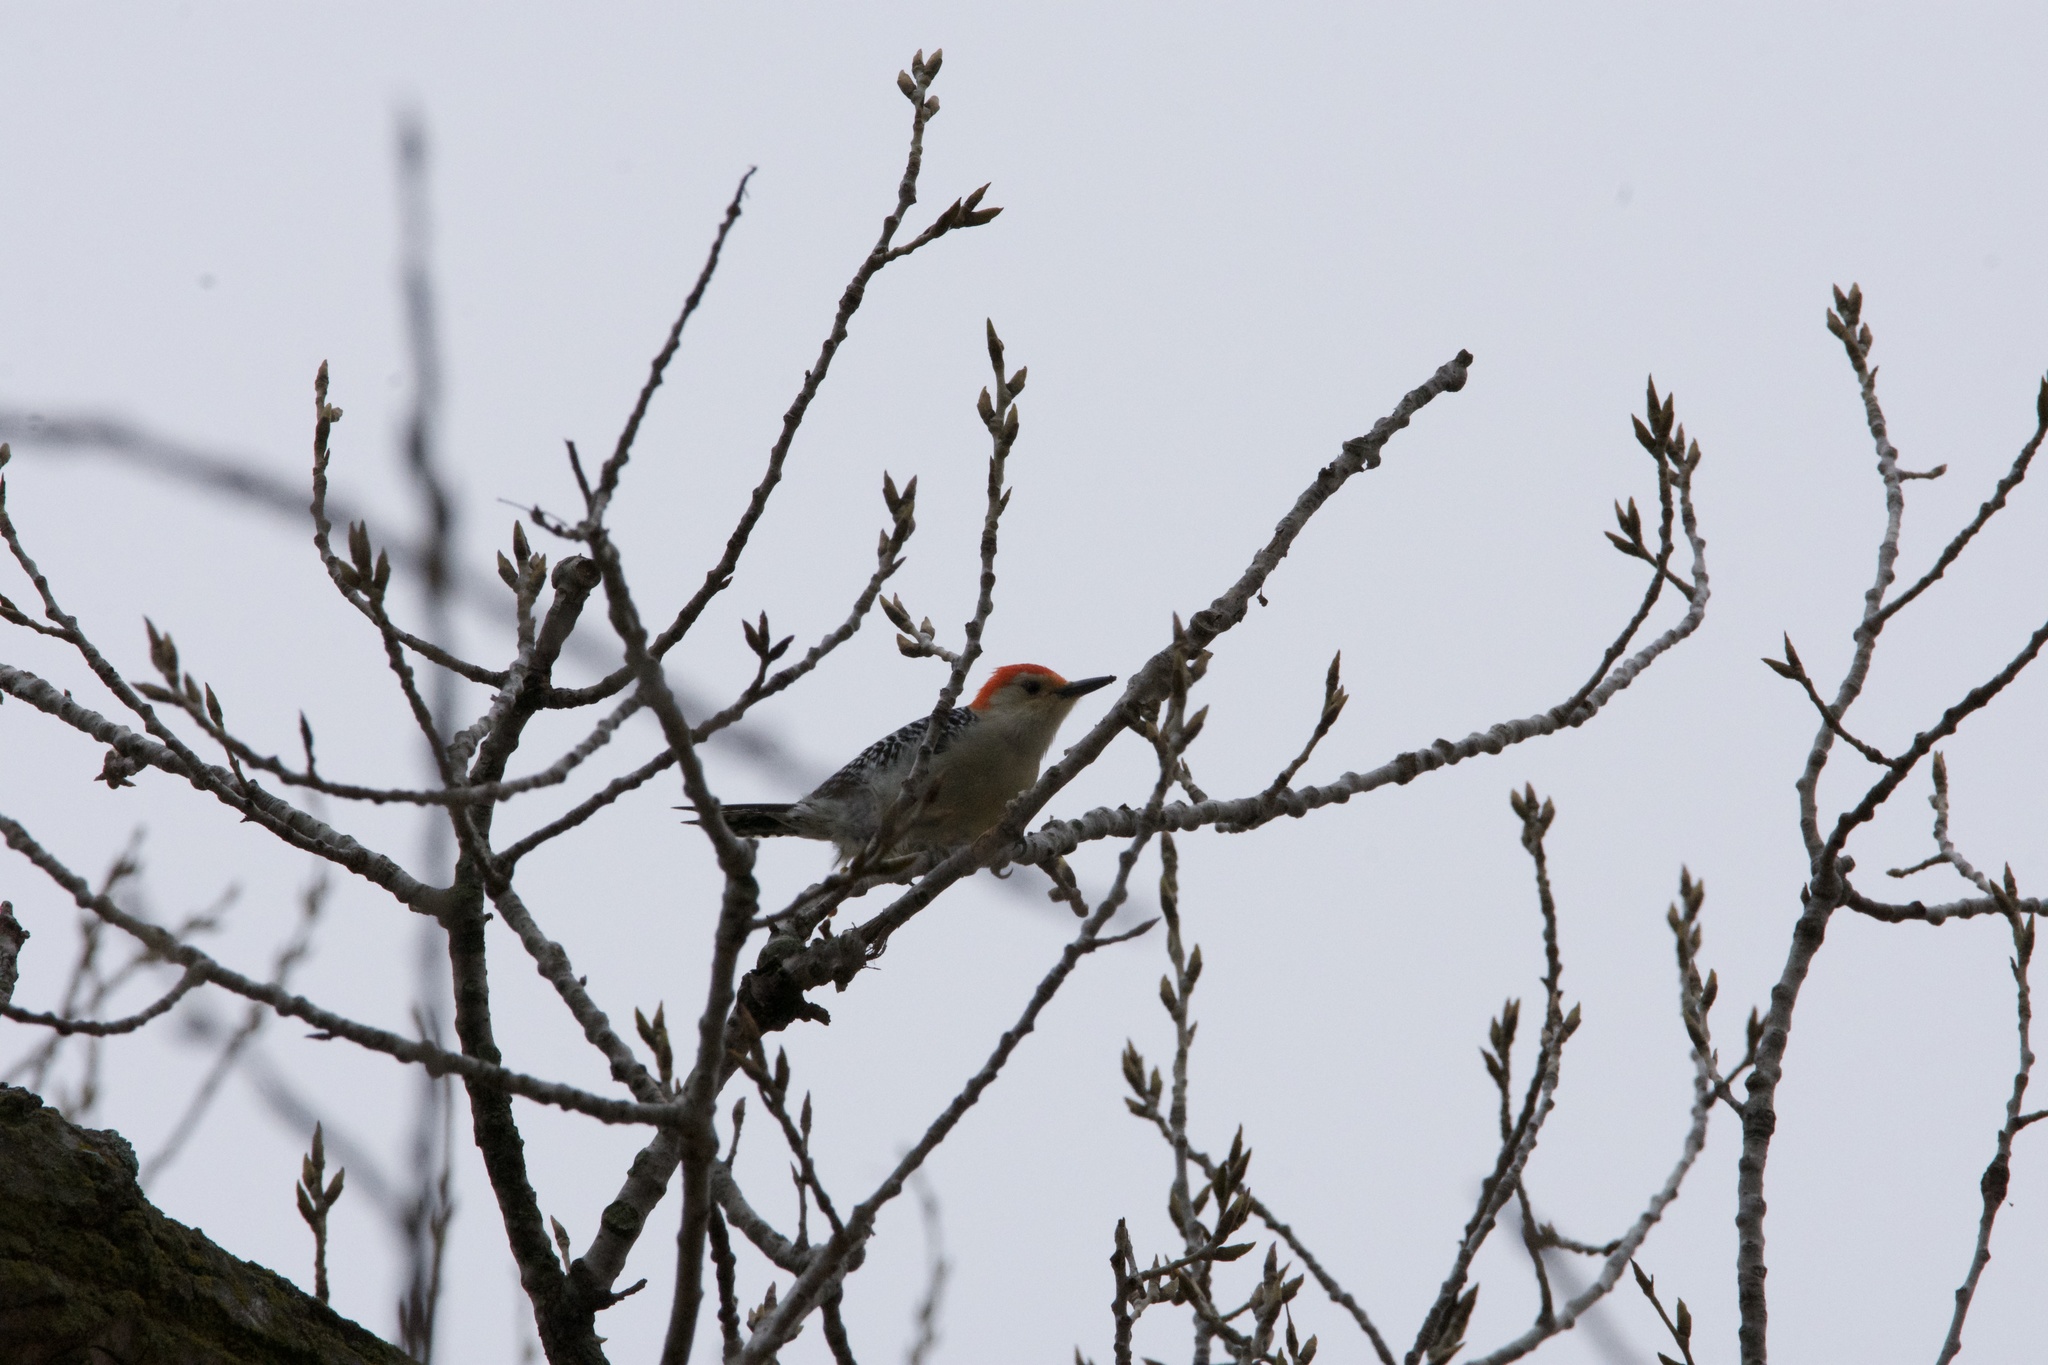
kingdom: Animalia
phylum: Chordata
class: Aves
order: Piciformes
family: Picidae
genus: Melanerpes
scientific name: Melanerpes carolinus
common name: Red-bellied woodpecker
